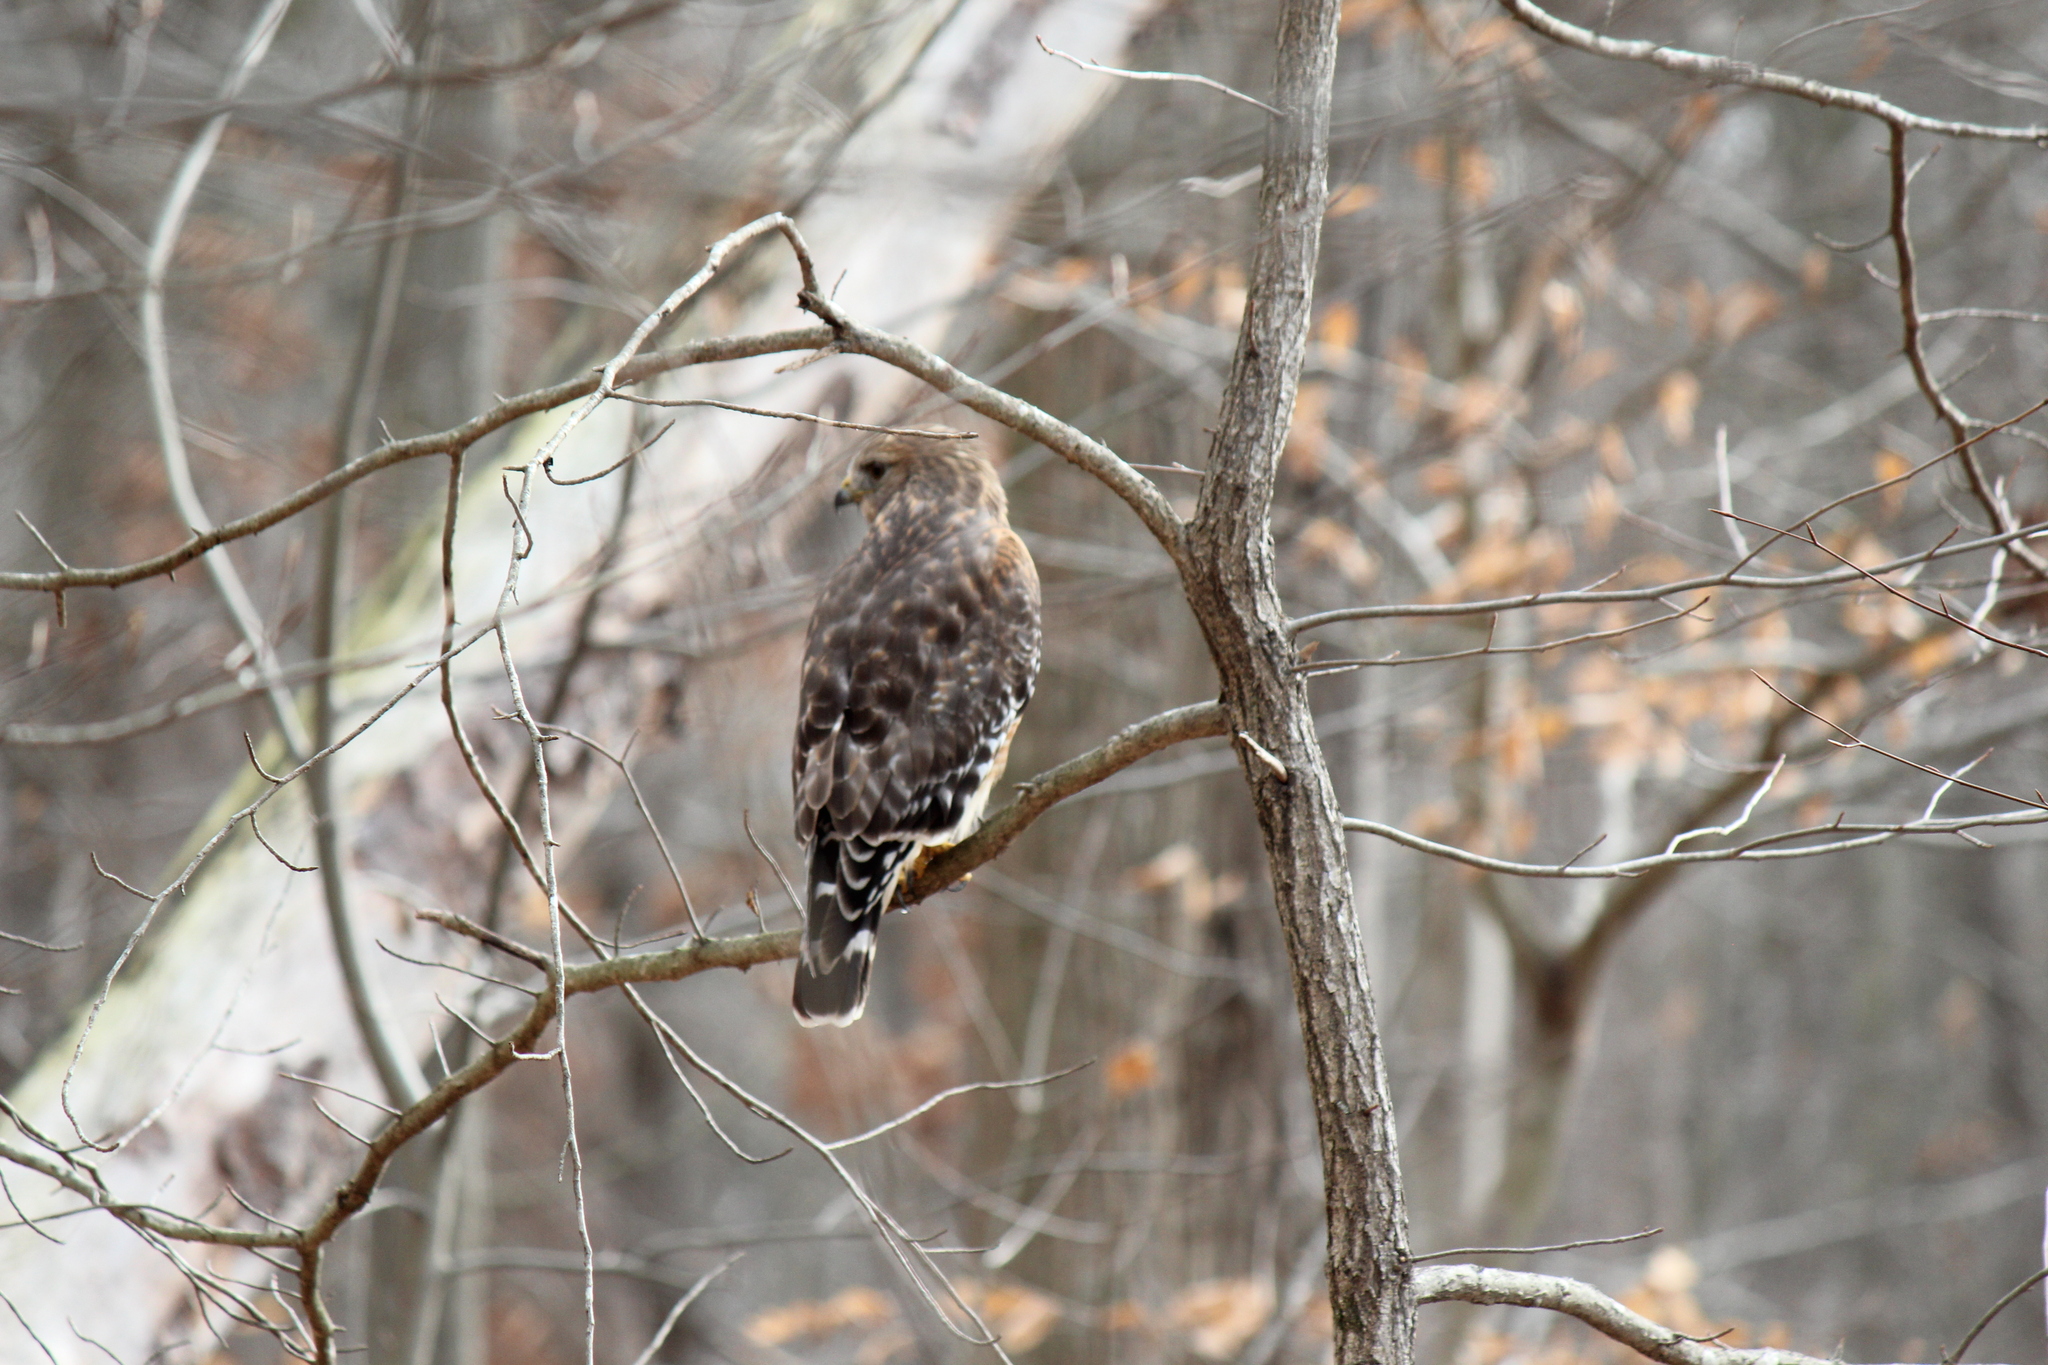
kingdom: Animalia
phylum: Chordata
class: Aves
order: Accipitriformes
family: Accipitridae
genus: Buteo
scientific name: Buteo lineatus
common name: Red-shouldered hawk
